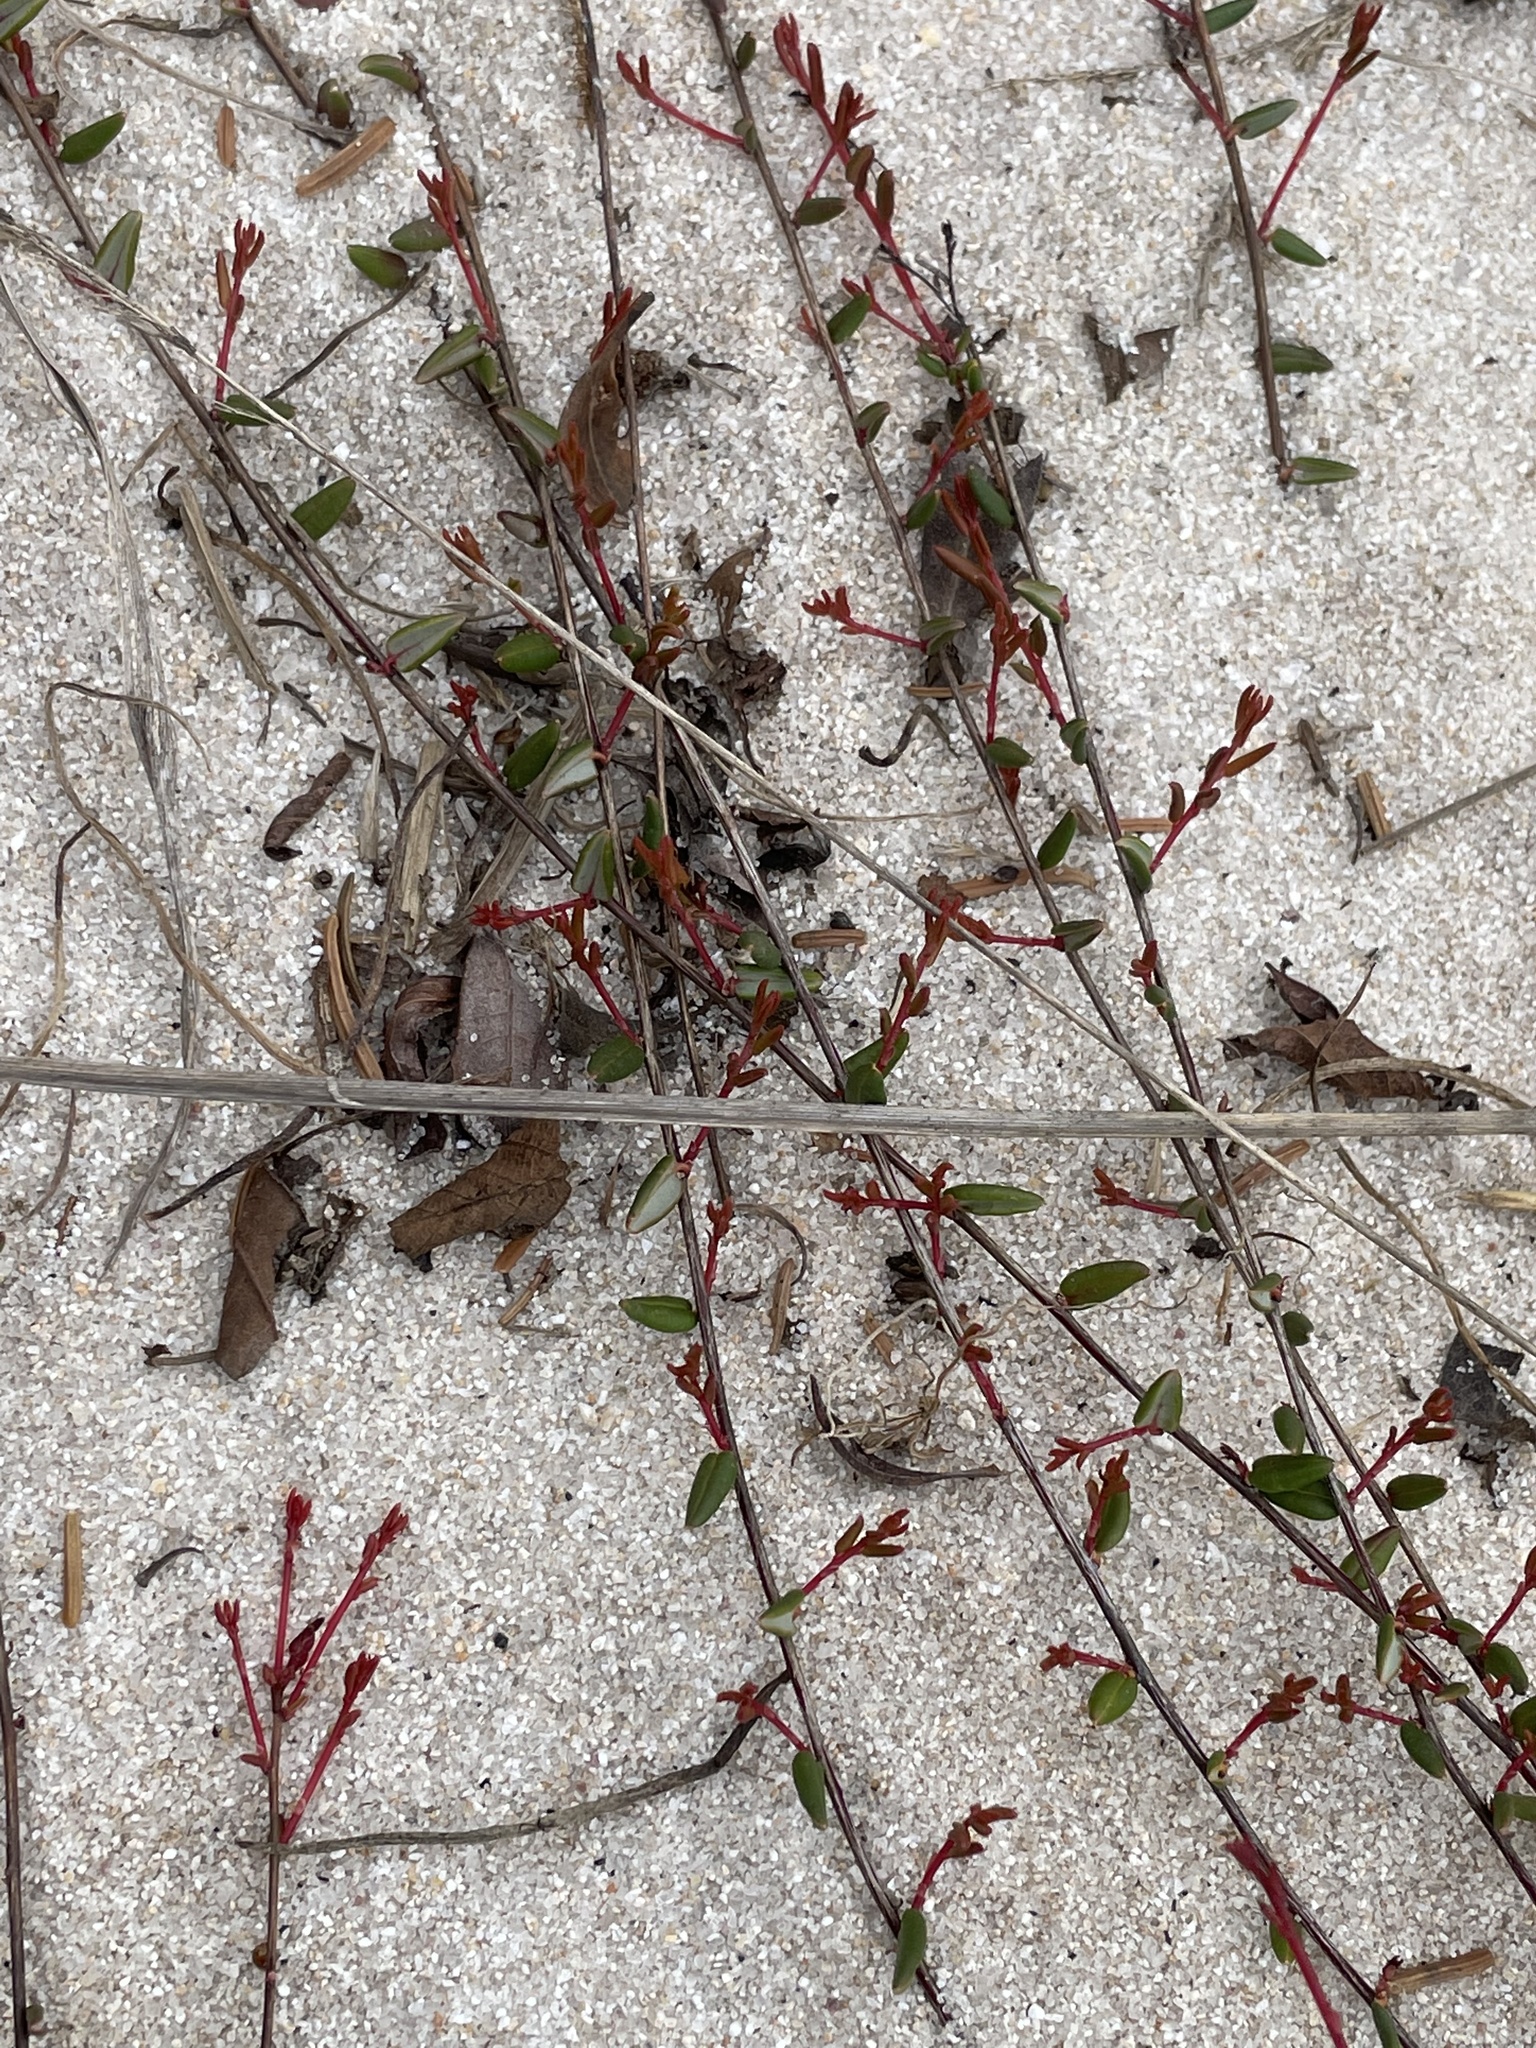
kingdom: Plantae
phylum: Tracheophyta
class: Magnoliopsida
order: Ericales
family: Ericaceae
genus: Vaccinium
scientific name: Vaccinium oxycoccos
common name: Cranberry
